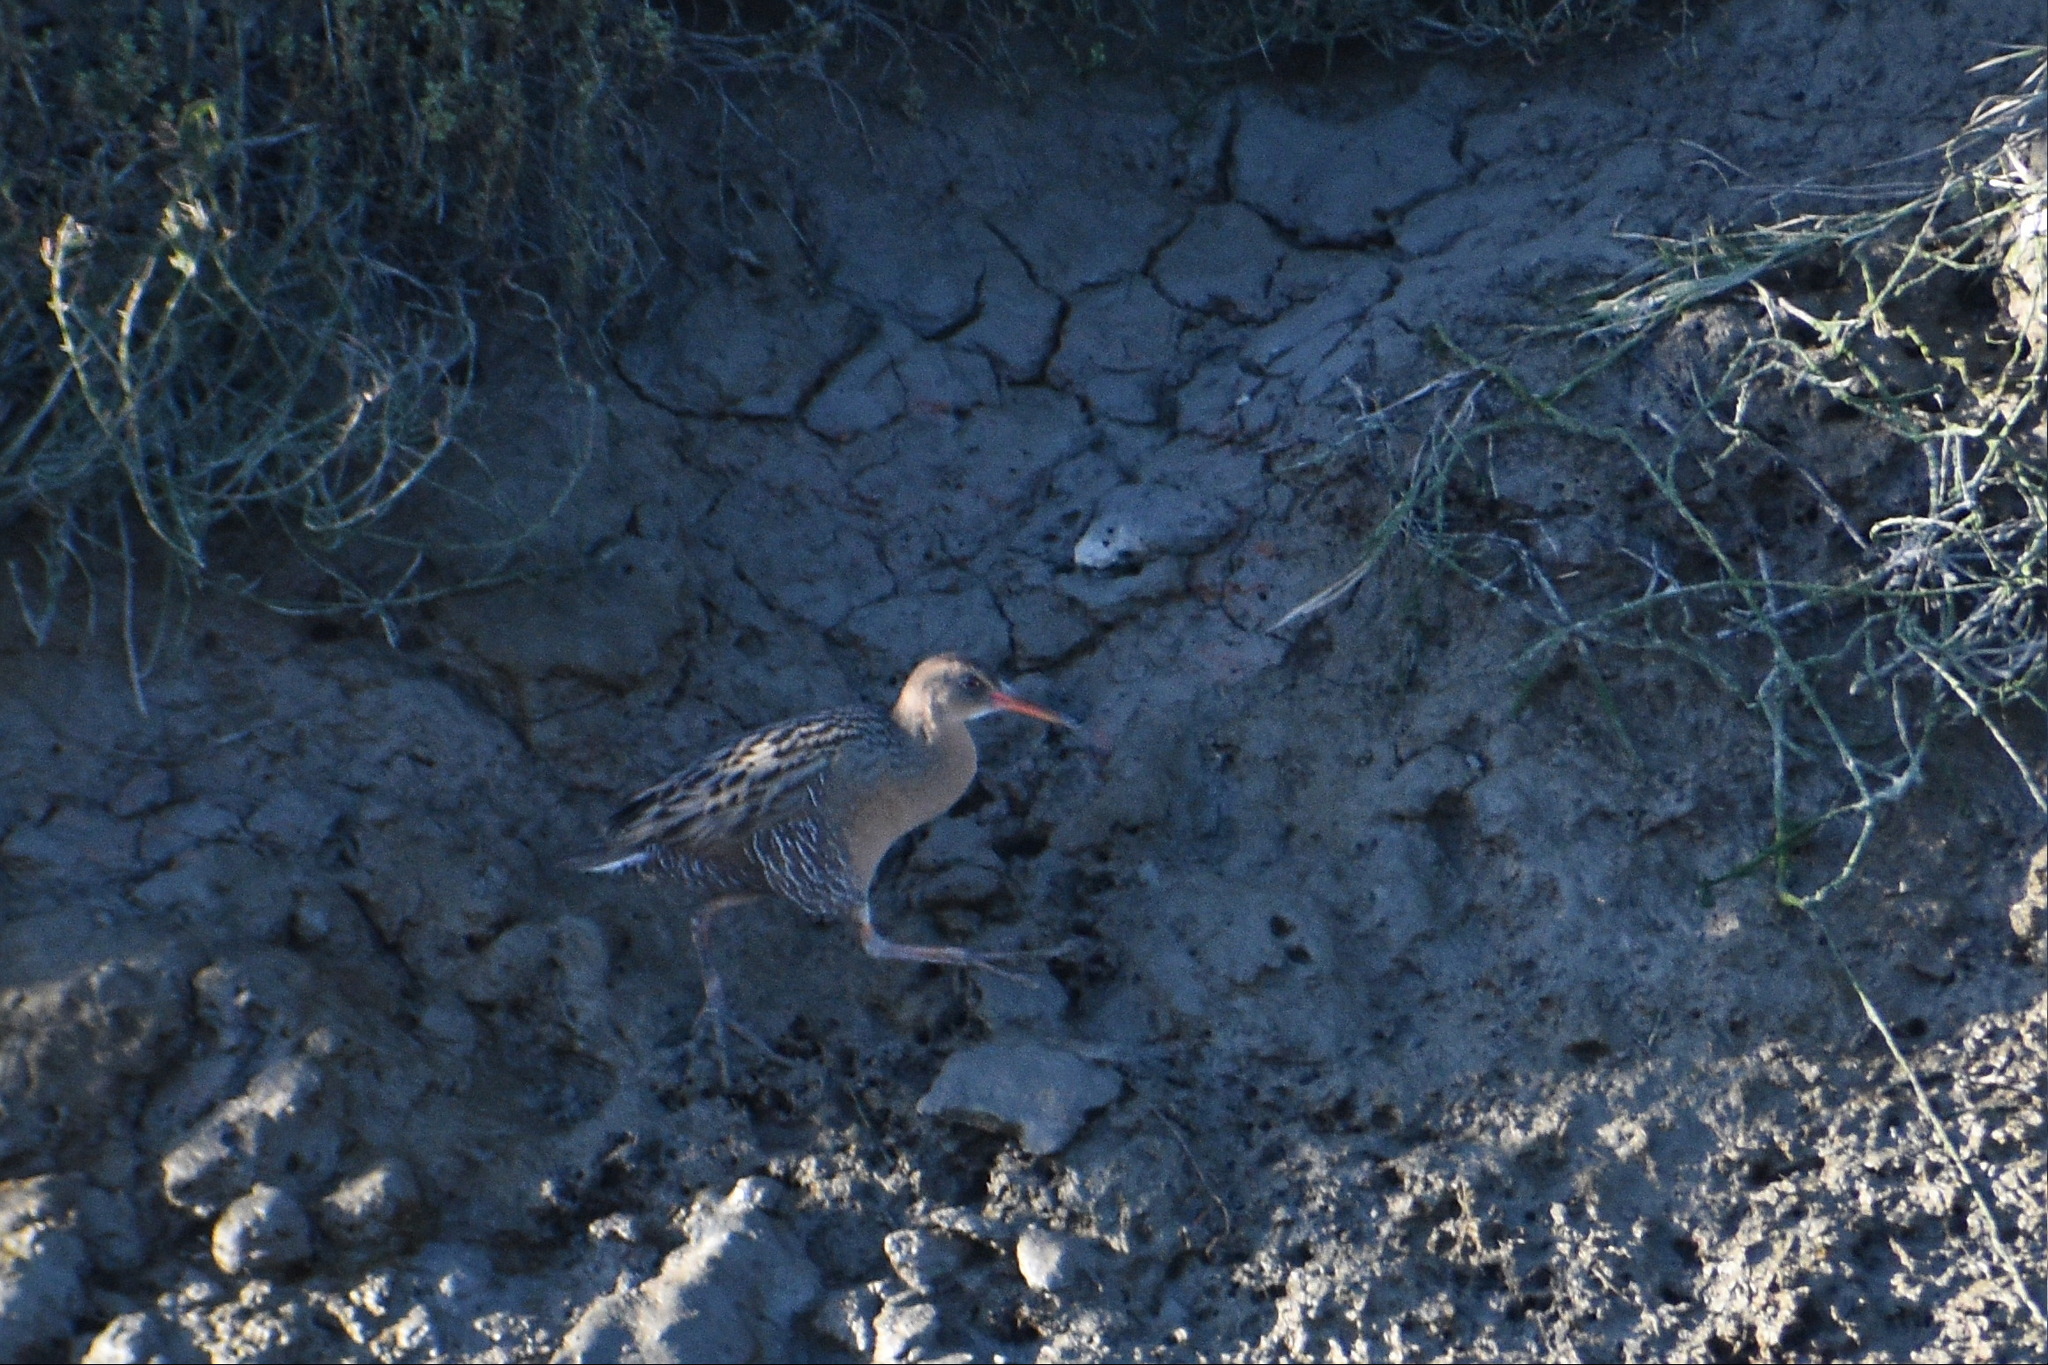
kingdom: Animalia
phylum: Chordata
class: Aves
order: Gruiformes
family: Rallidae
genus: Rallus
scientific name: Rallus obsoletus
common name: Ridgway's rail
